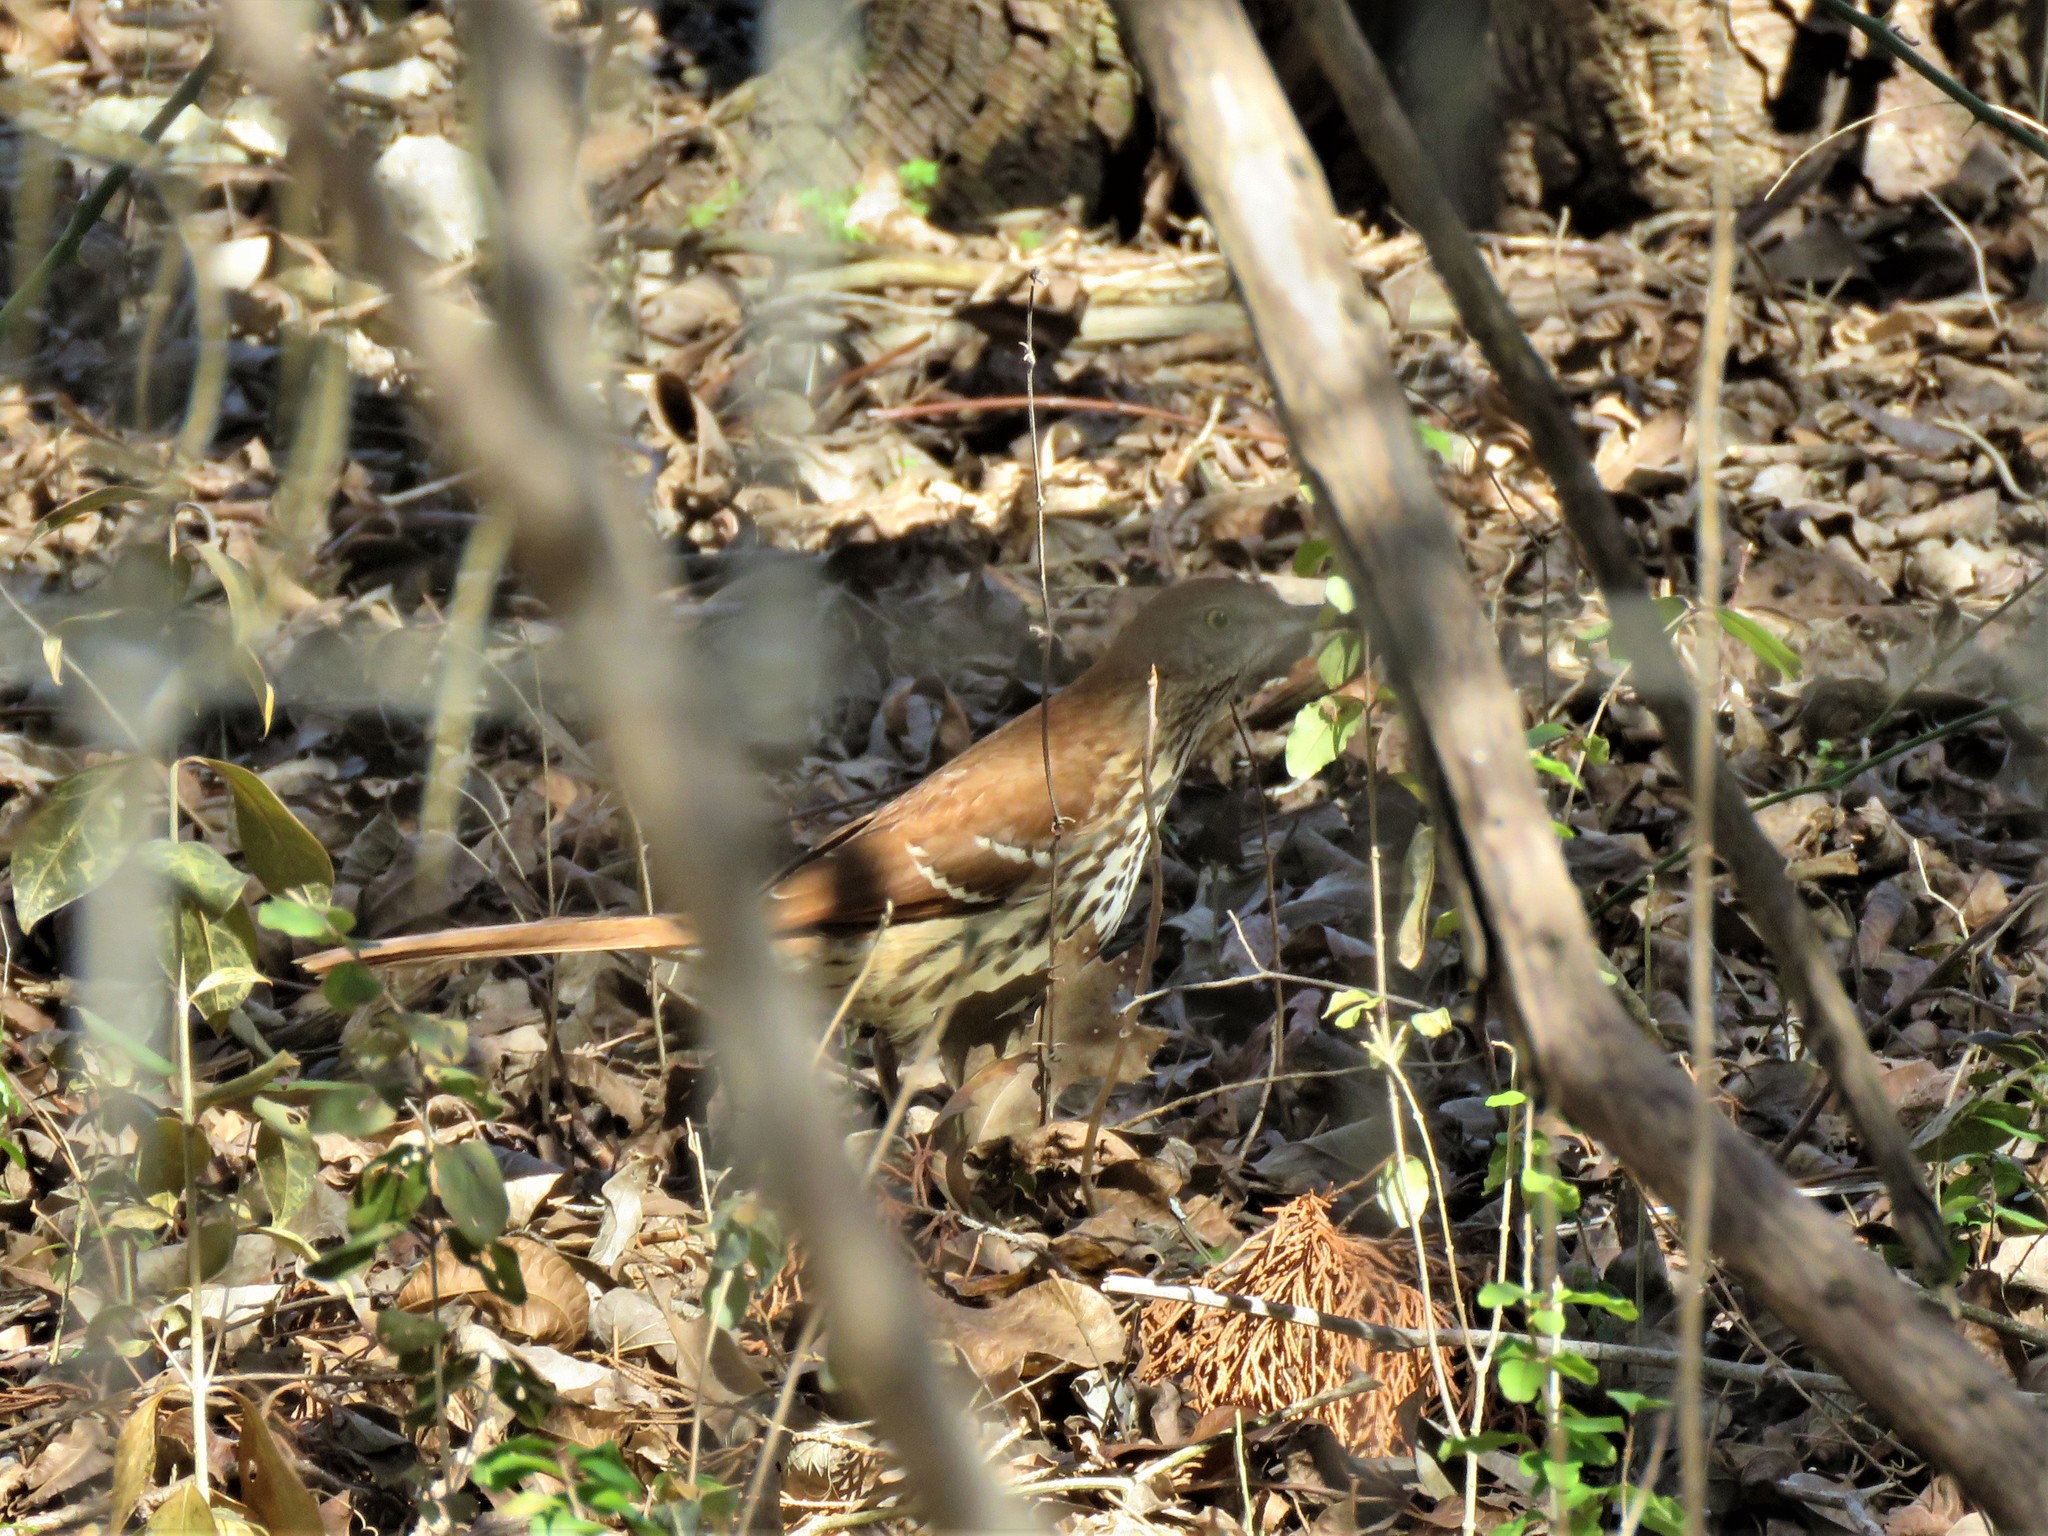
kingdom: Animalia
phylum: Chordata
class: Aves
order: Passeriformes
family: Mimidae
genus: Toxostoma
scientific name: Toxostoma rufum
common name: Brown thrasher
